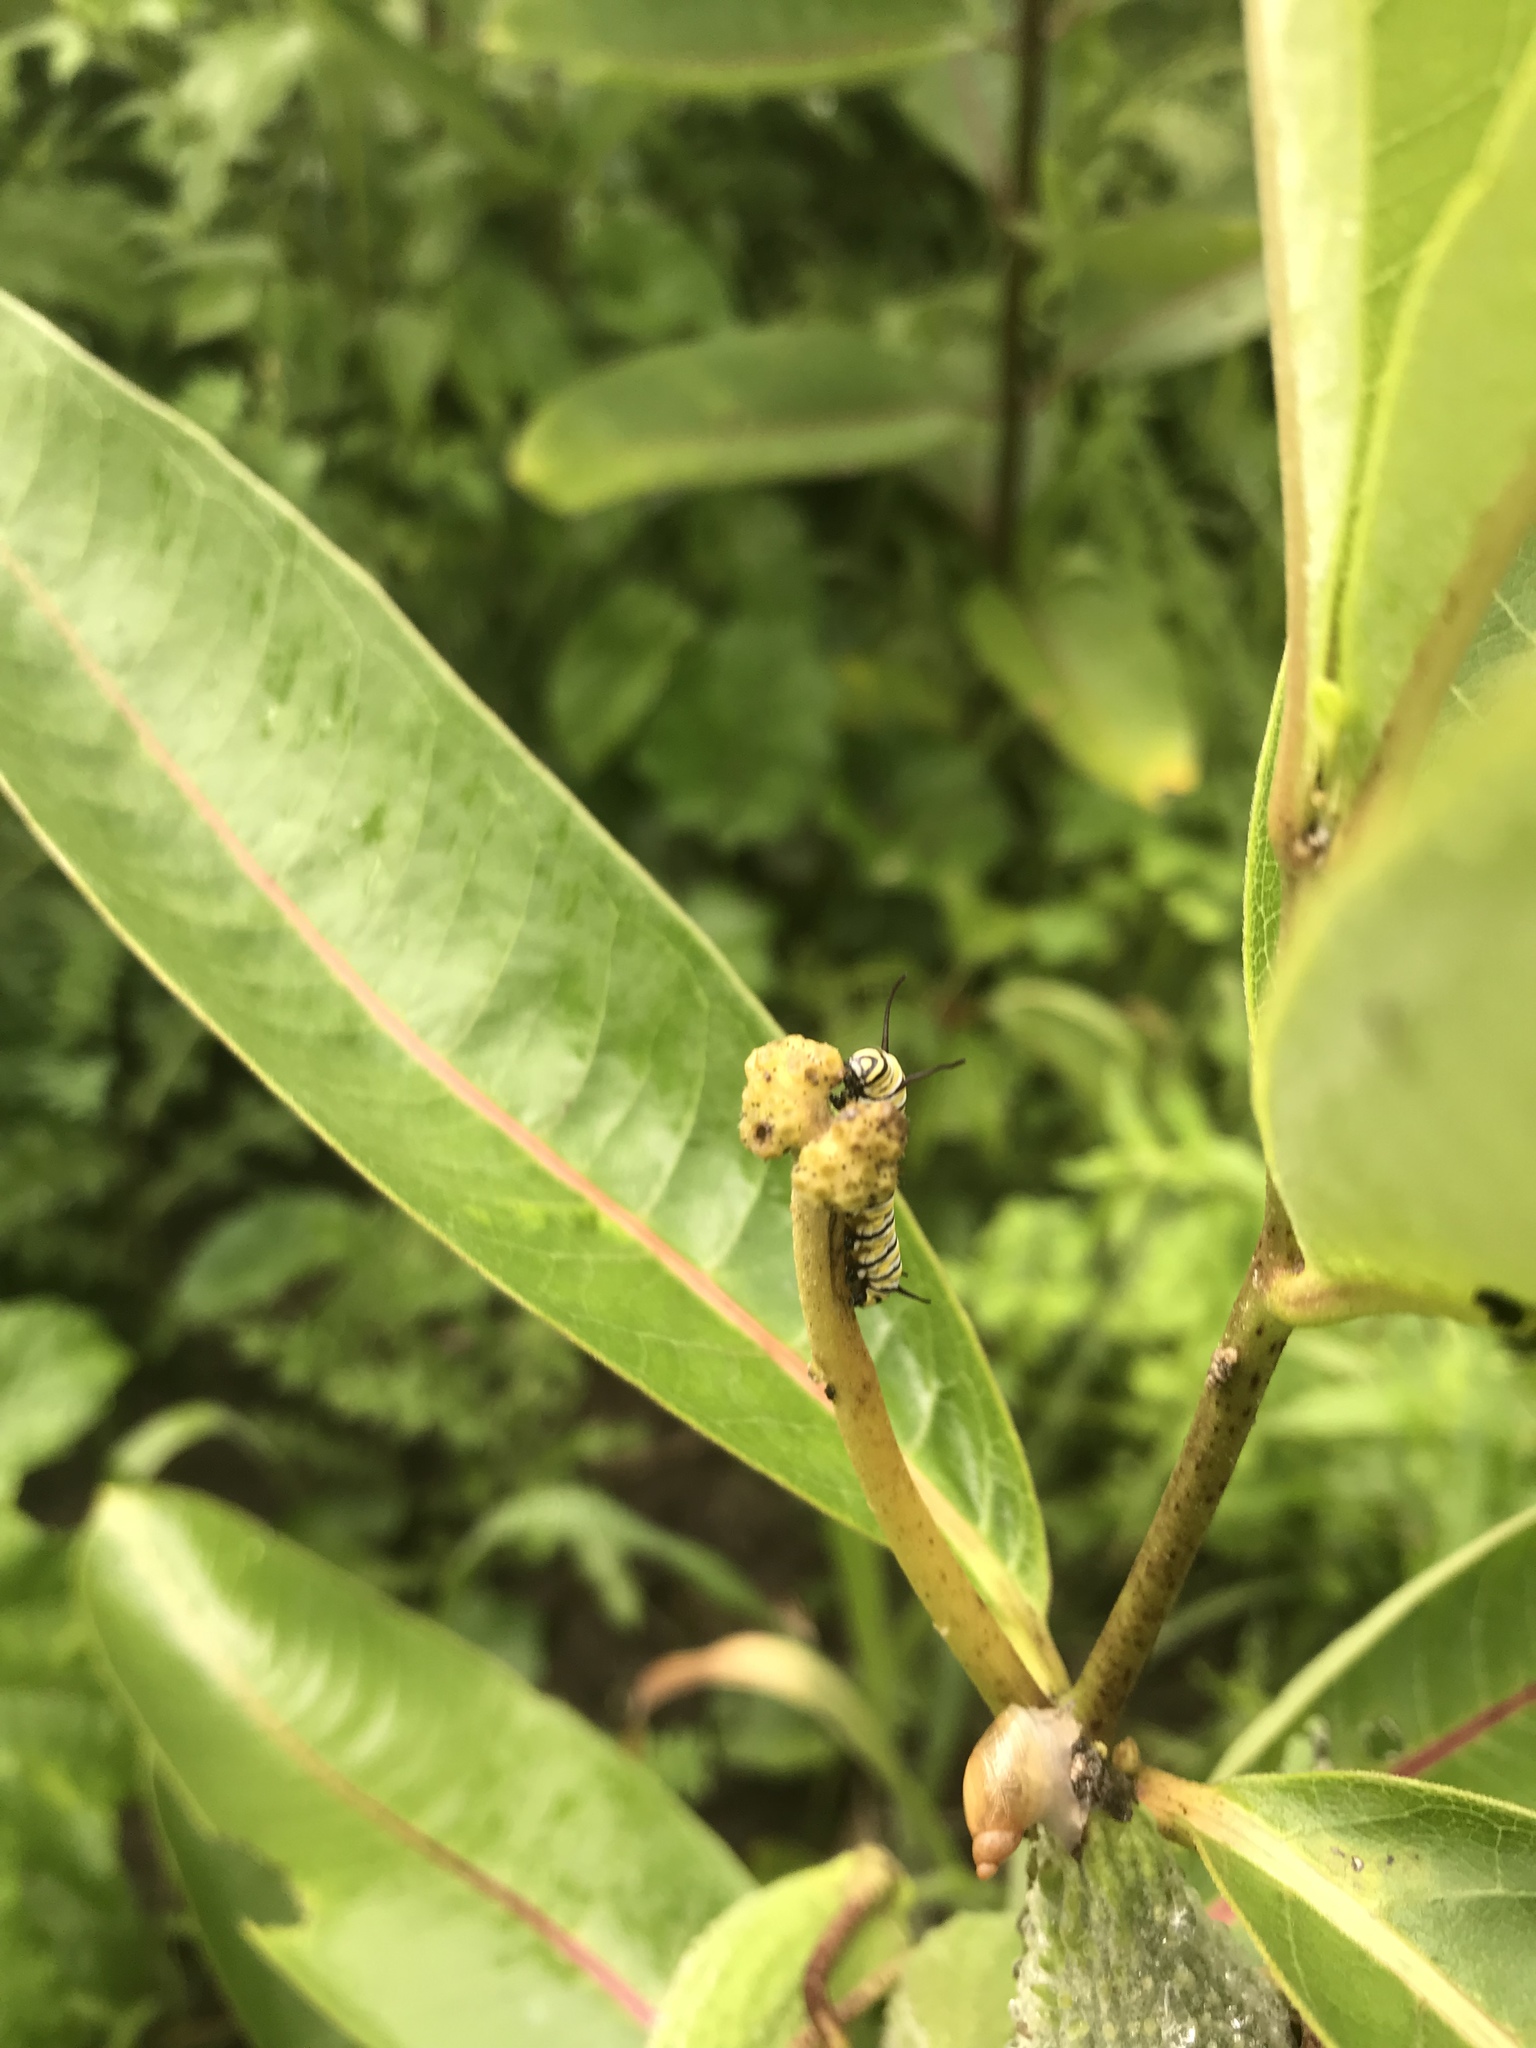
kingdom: Animalia
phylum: Arthropoda
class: Insecta
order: Lepidoptera
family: Nymphalidae
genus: Danaus
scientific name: Danaus plexippus
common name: Monarch
